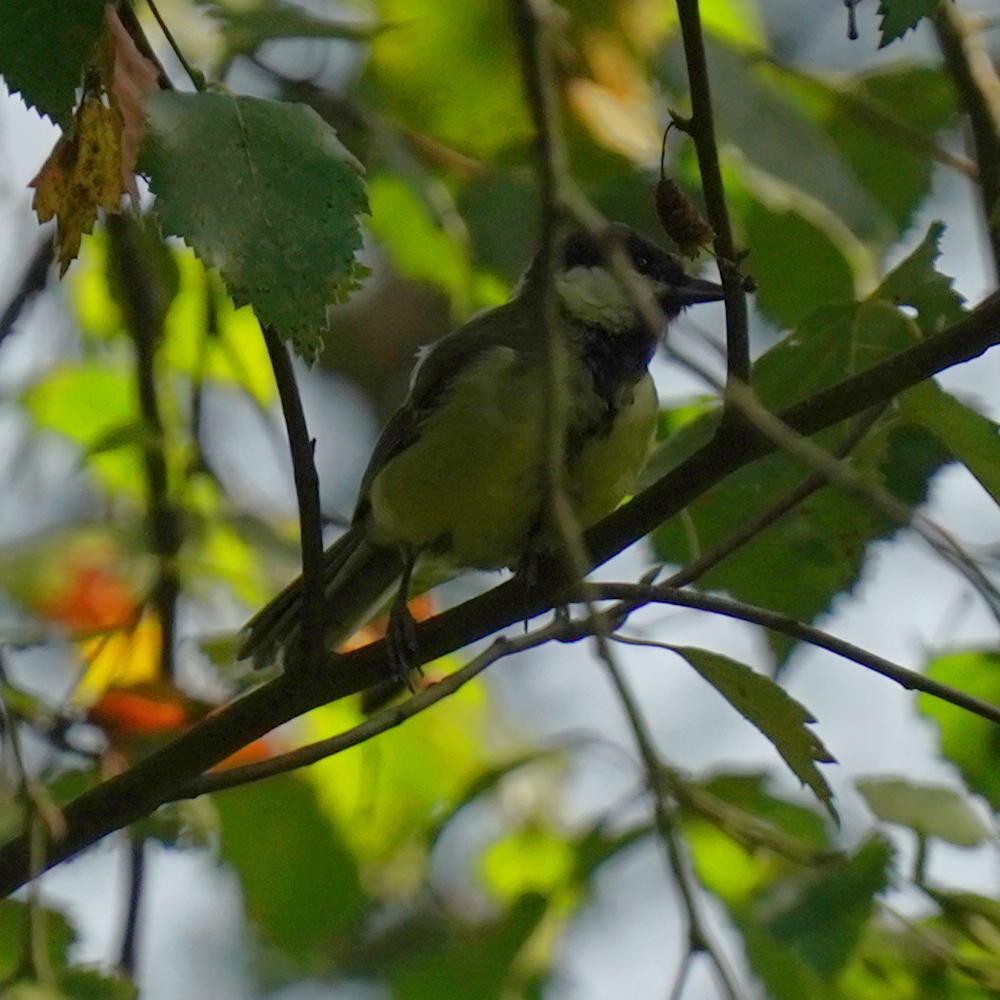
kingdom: Animalia
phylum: Chordata
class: Aves
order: Passeriformes
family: Paridae
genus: Parus
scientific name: Parus major
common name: Great tit
